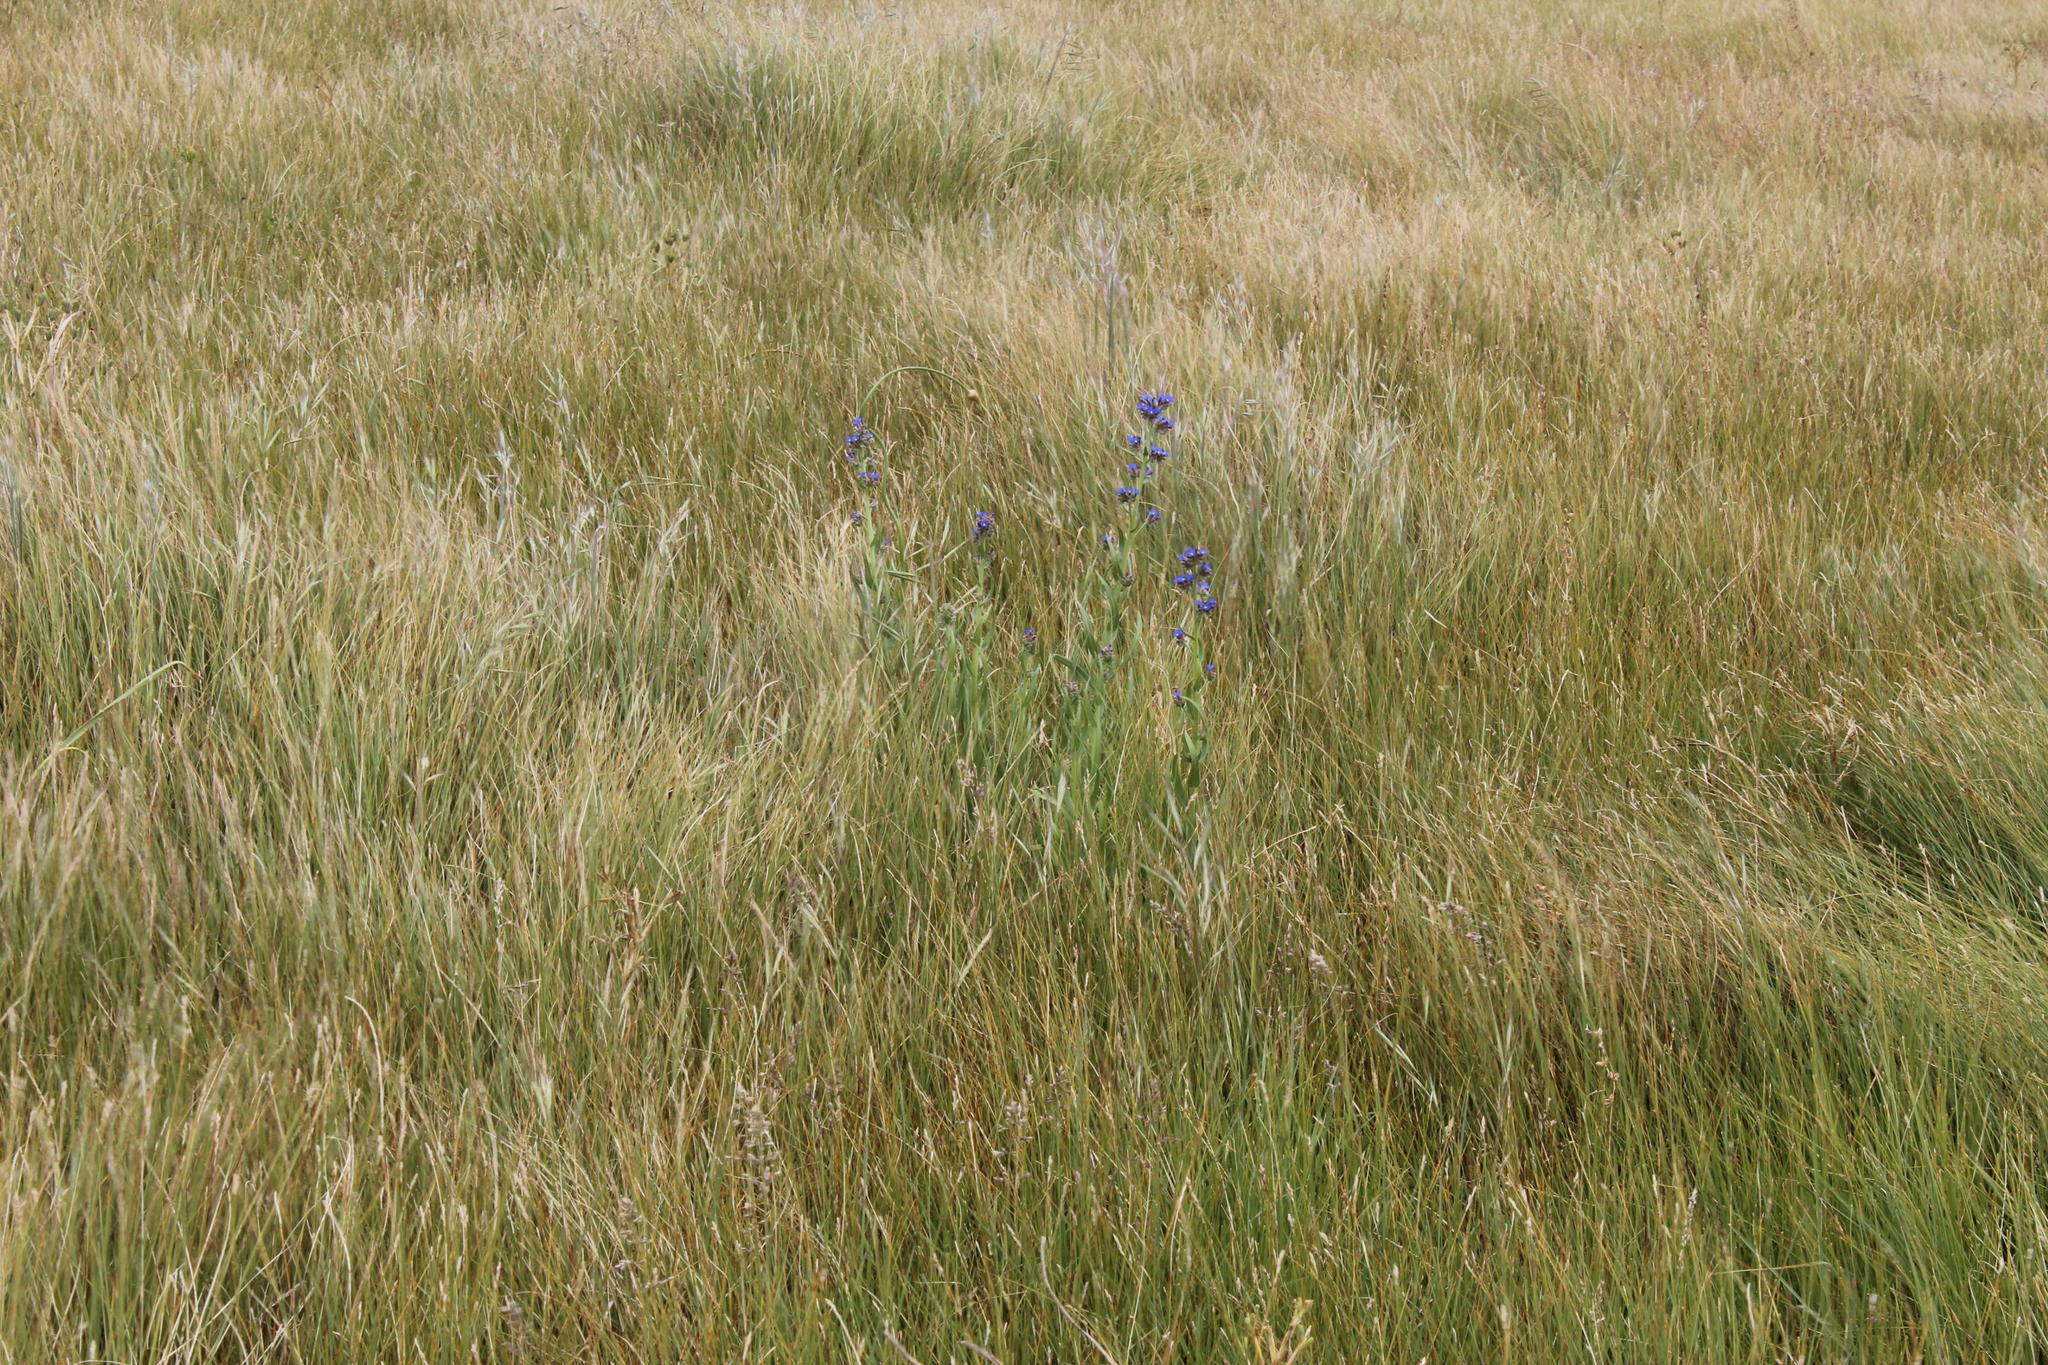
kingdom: Plantae
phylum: Tracheophyta
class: Magnoliopsida
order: Boraginales
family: Boraginaceae
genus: Anchusa
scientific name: Anchusa capensis
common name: Cape bugloss
